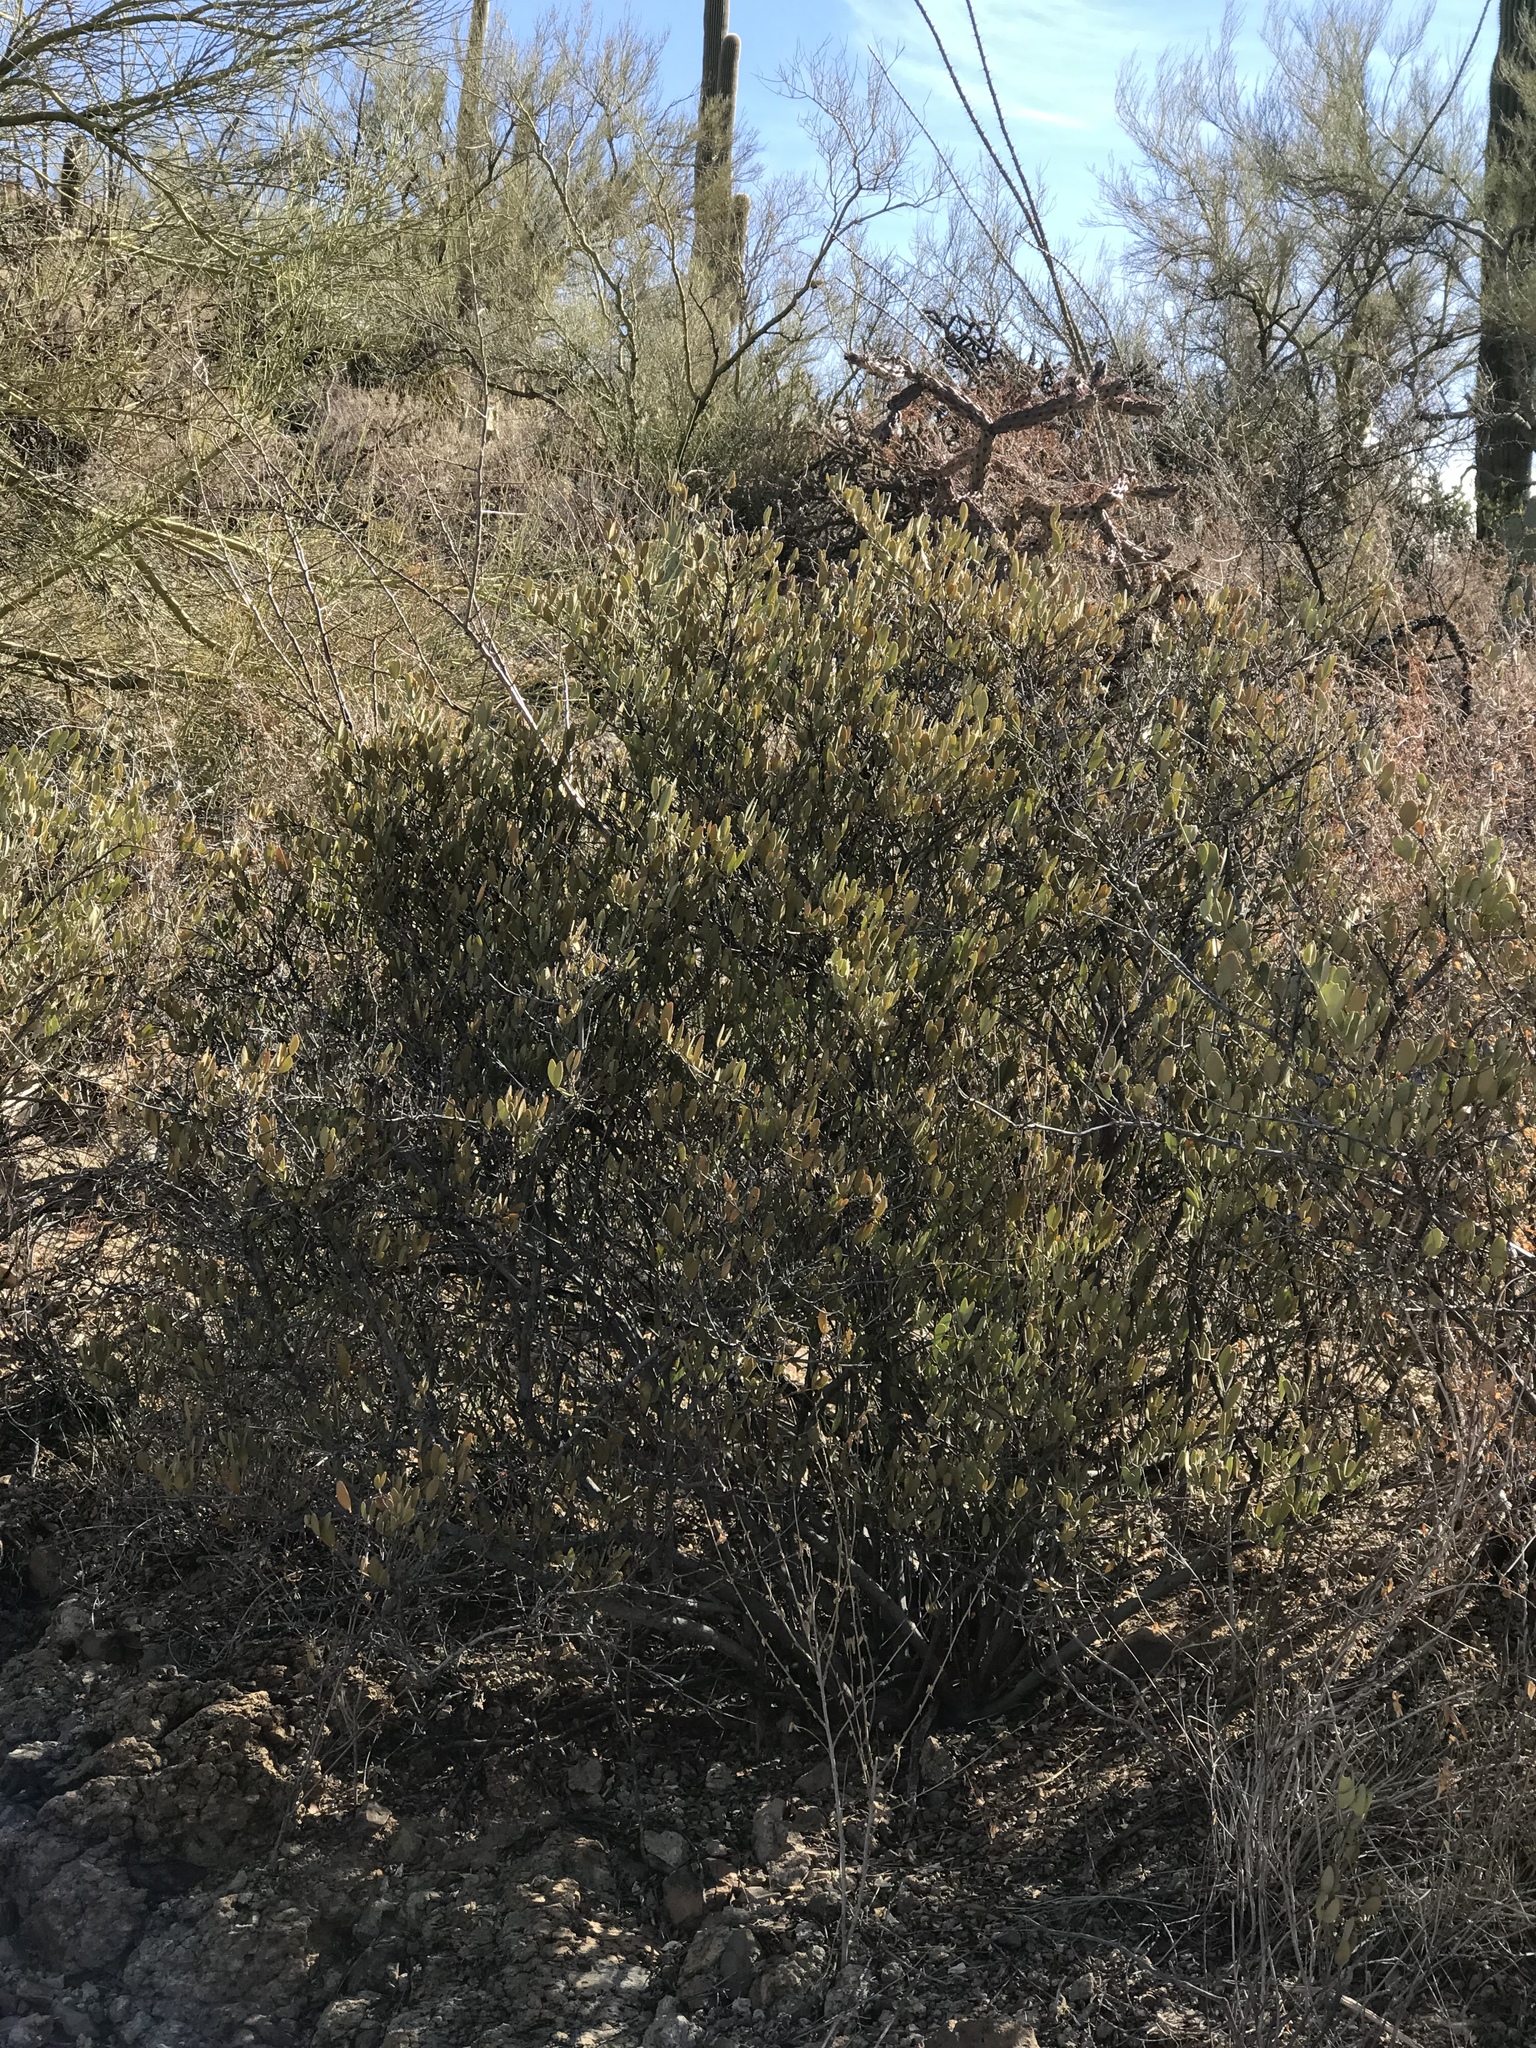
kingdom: Plantae
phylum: Tracheophyta
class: Magnoliopsida
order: Caryophyllales
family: Simmondsiaceae
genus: Simmondsia
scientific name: Simmondsia chinensis
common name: Jojoba
